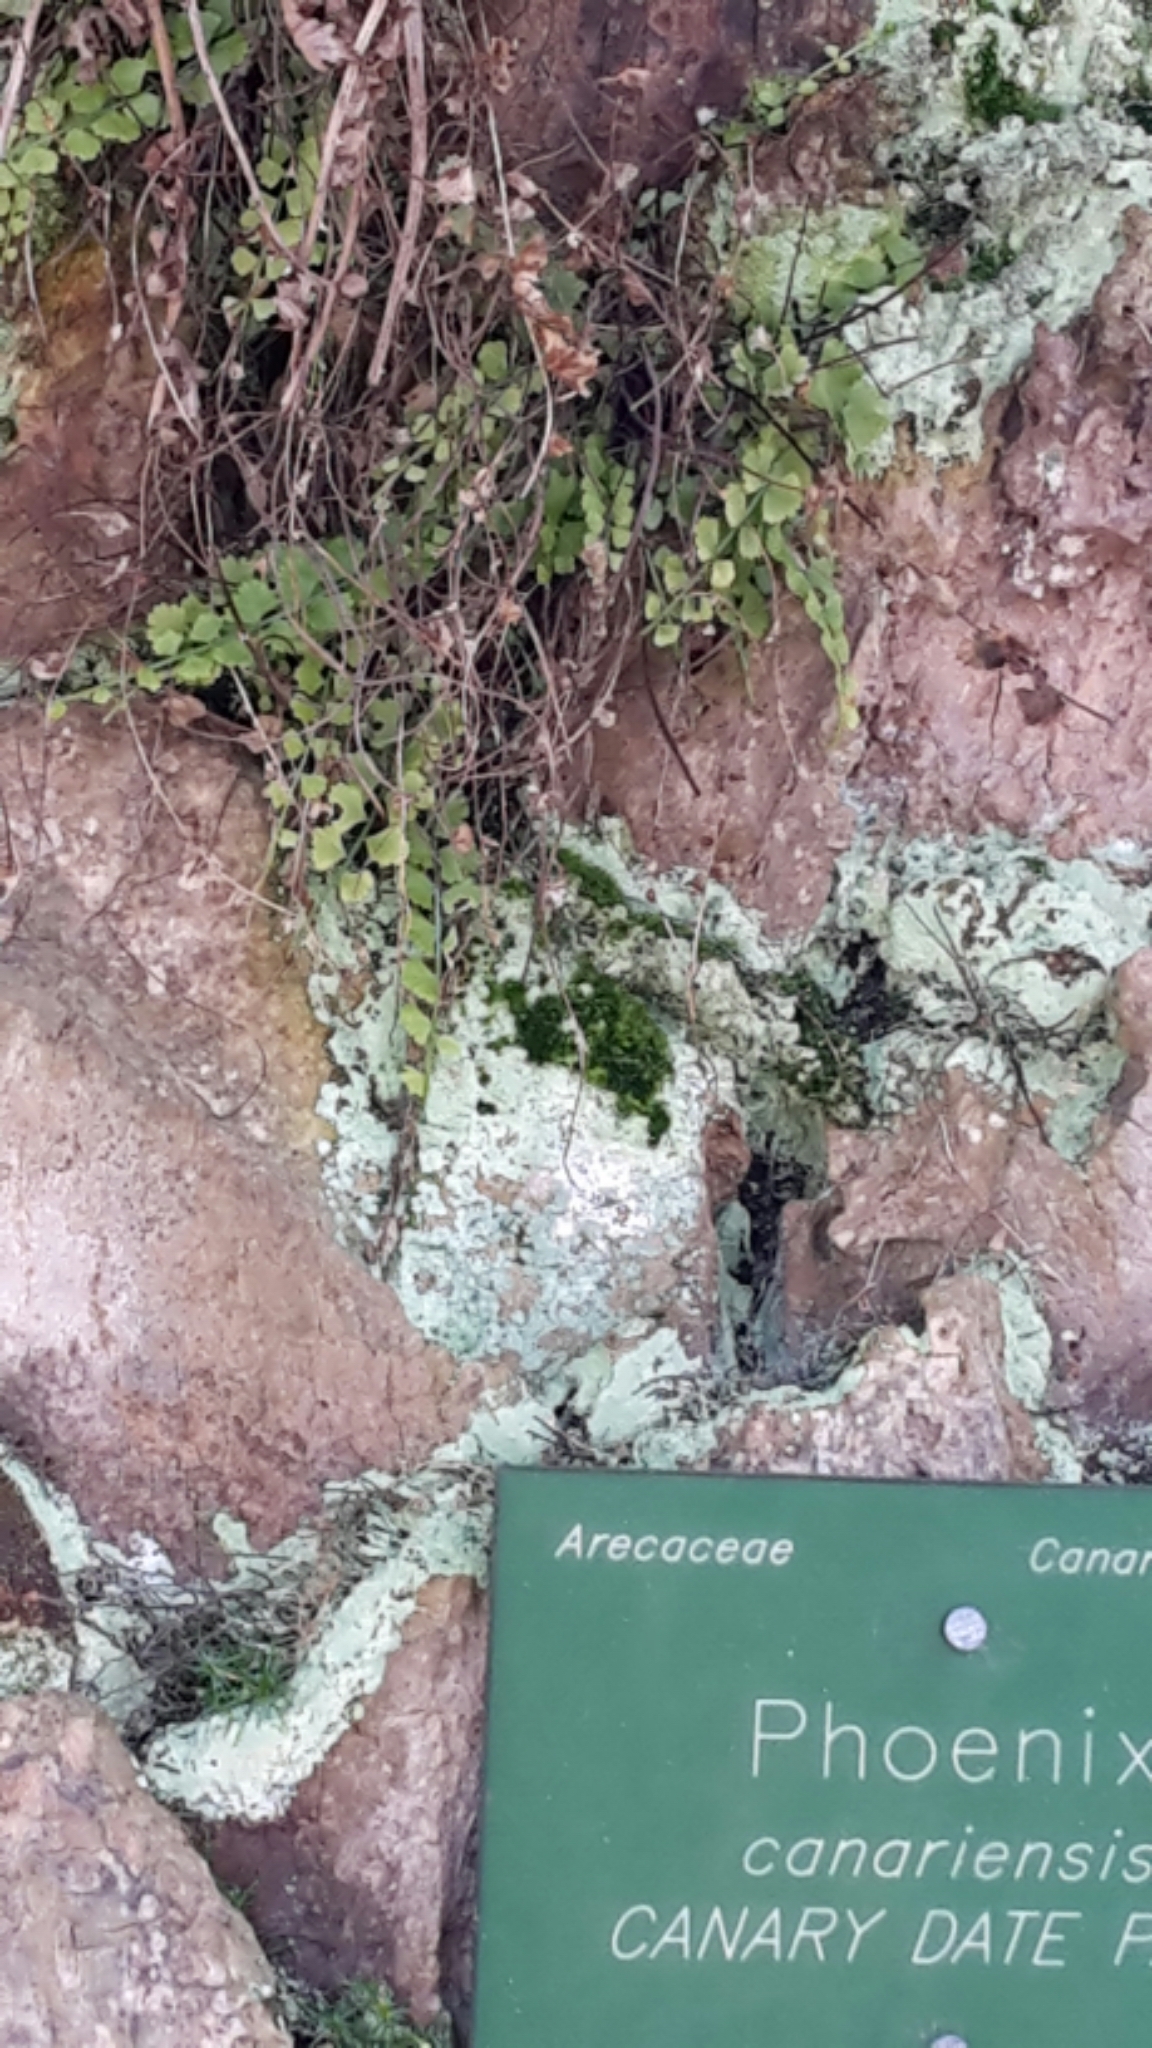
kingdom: Plantae
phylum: Tracheophyta
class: Polypodiopsida
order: Polypodiales
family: Aspleniaceae
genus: Asplenium
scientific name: Asplenium flabellifolium
